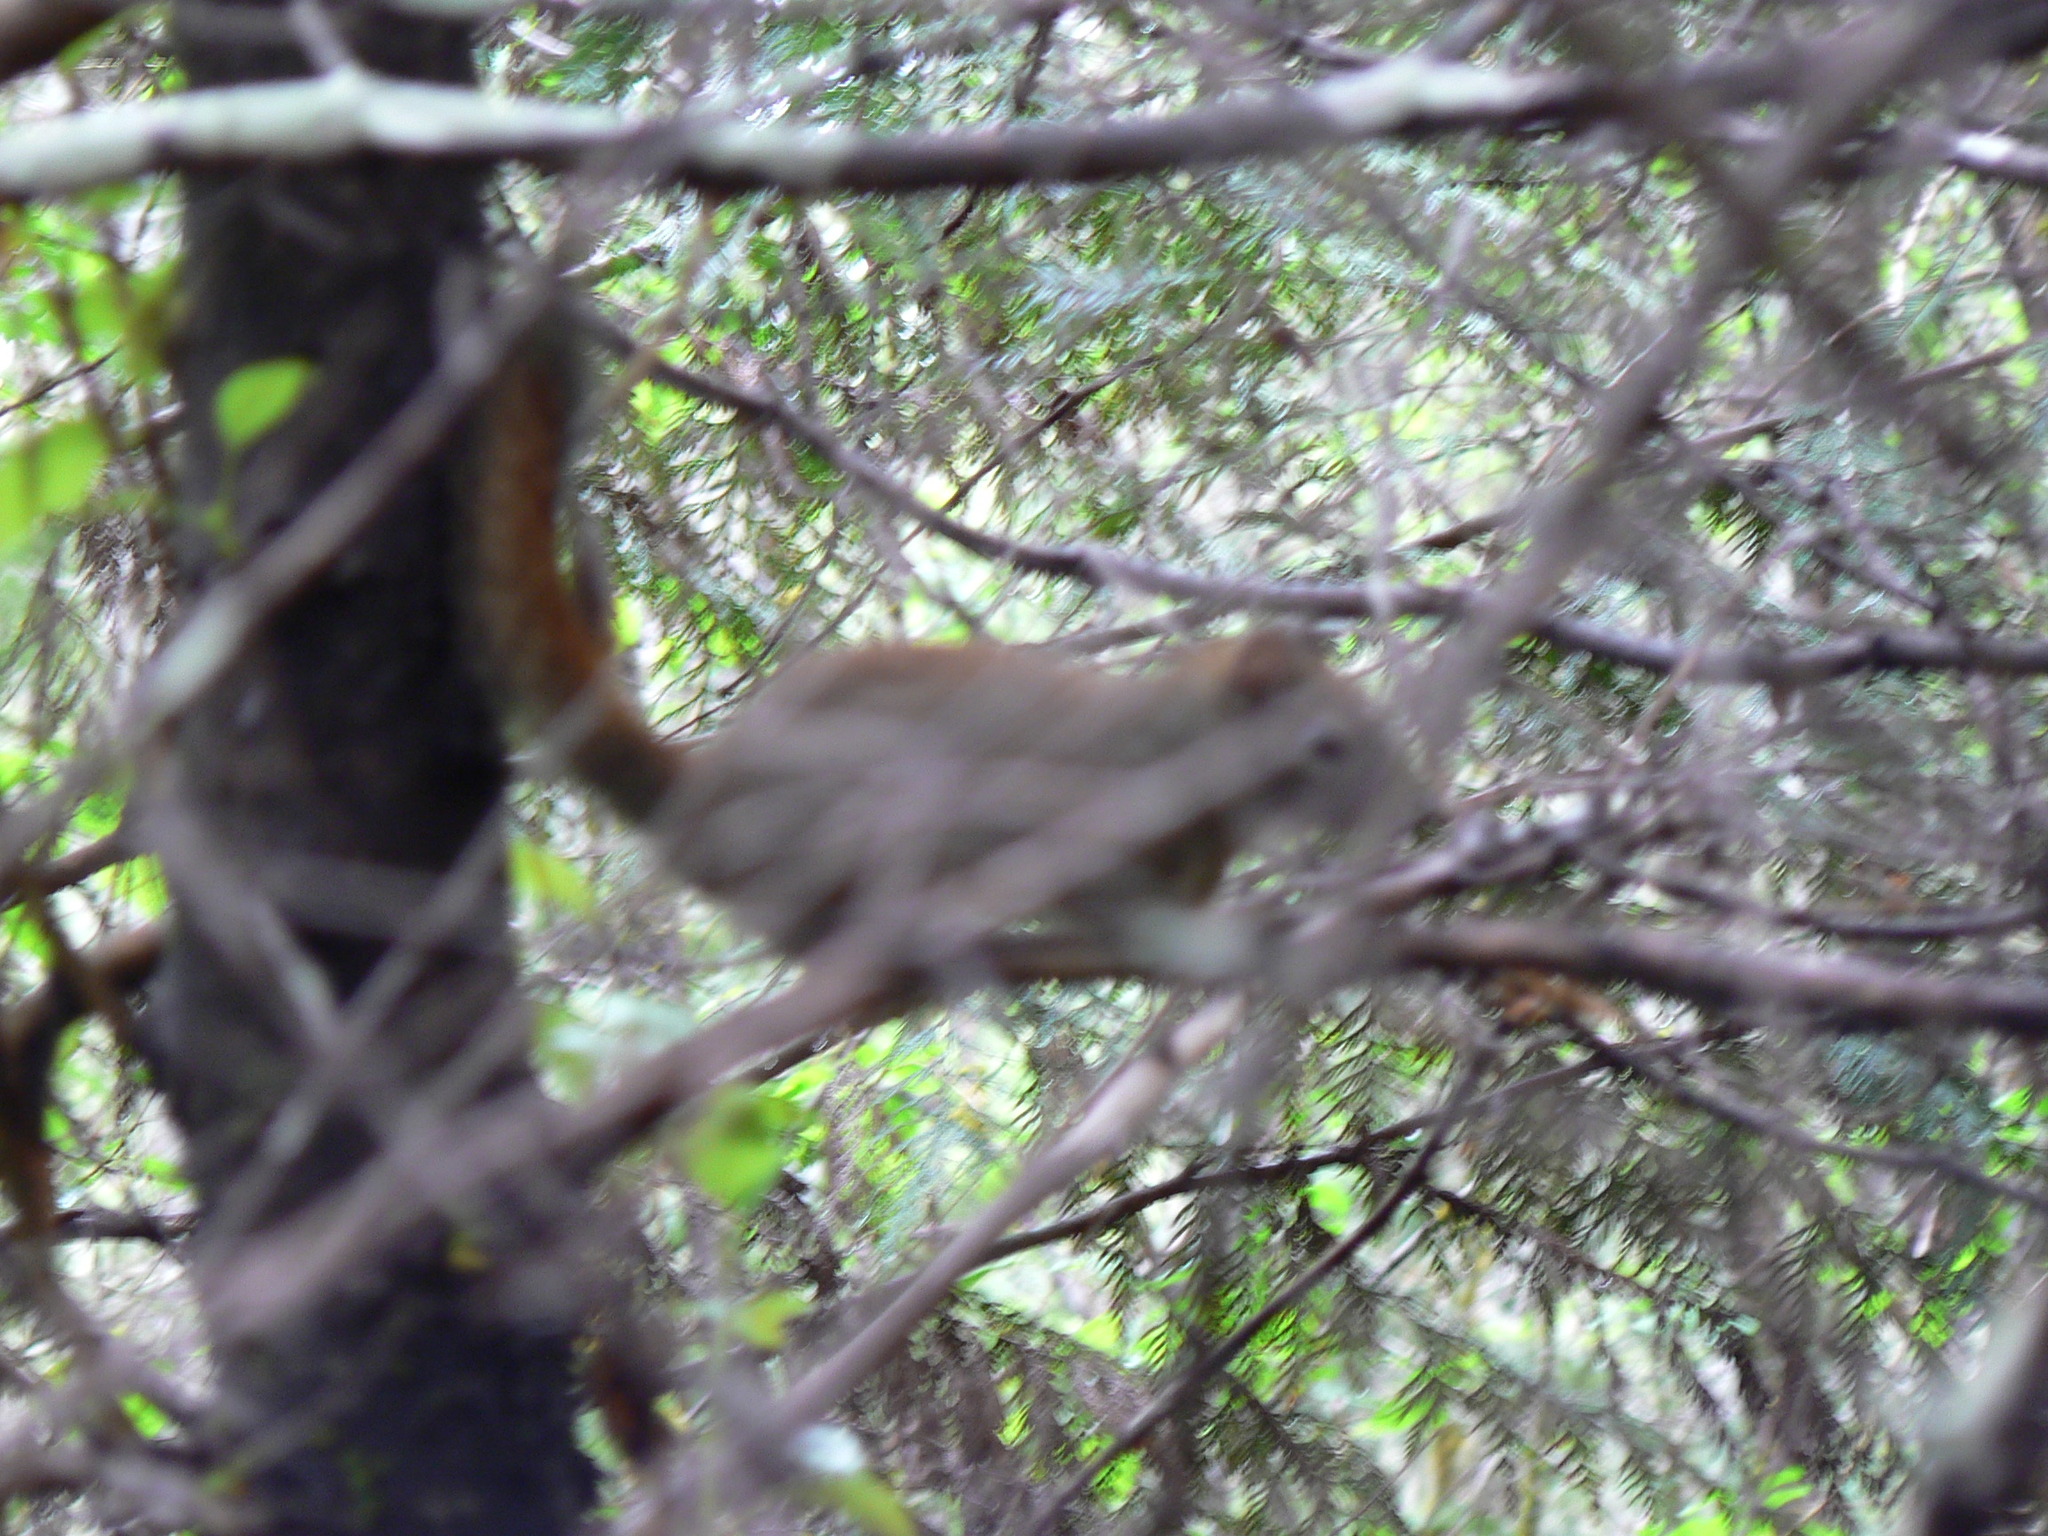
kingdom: Animalia
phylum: Chordata
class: Mammalia
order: Rodentia
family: Sciuridae
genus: Tamiasciurus
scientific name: Tamiasciurus hudsonicus
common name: Red squirrel
